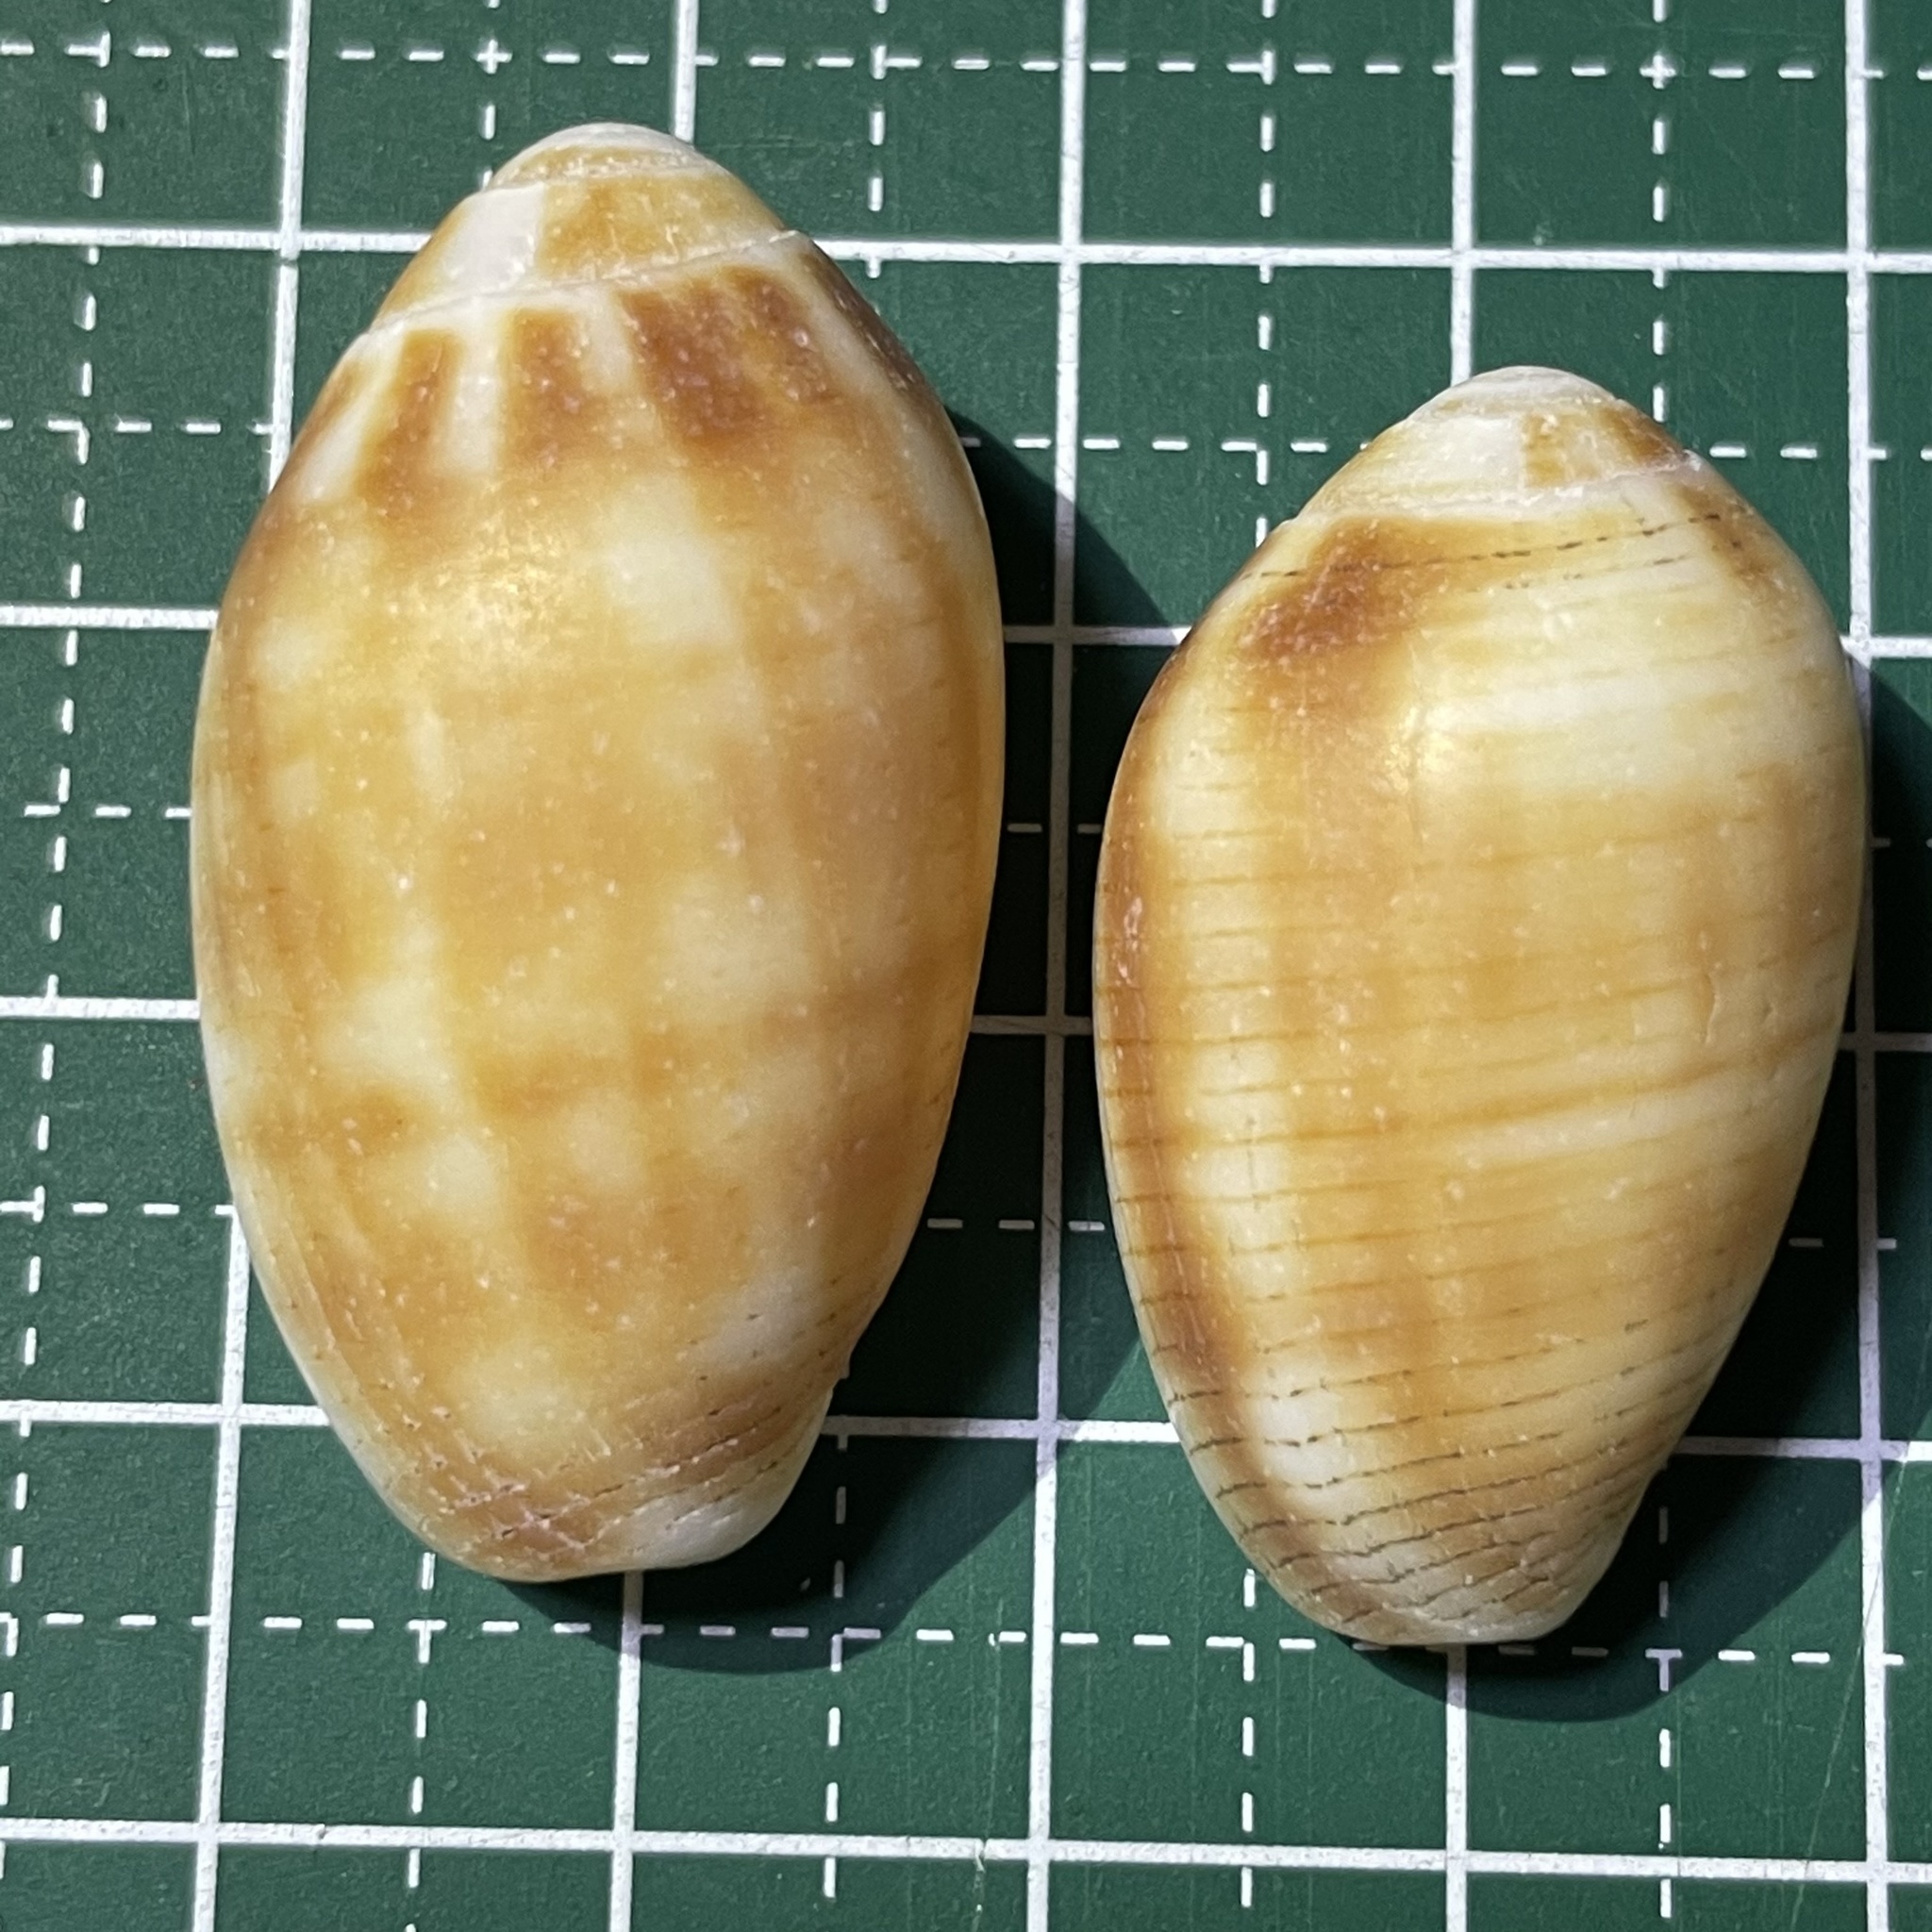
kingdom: Animalia
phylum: Mollusca
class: Gastropoda
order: Neogastropoda
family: Mitridae
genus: Pterygia
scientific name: Pterygia dactylus
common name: Finger miter
